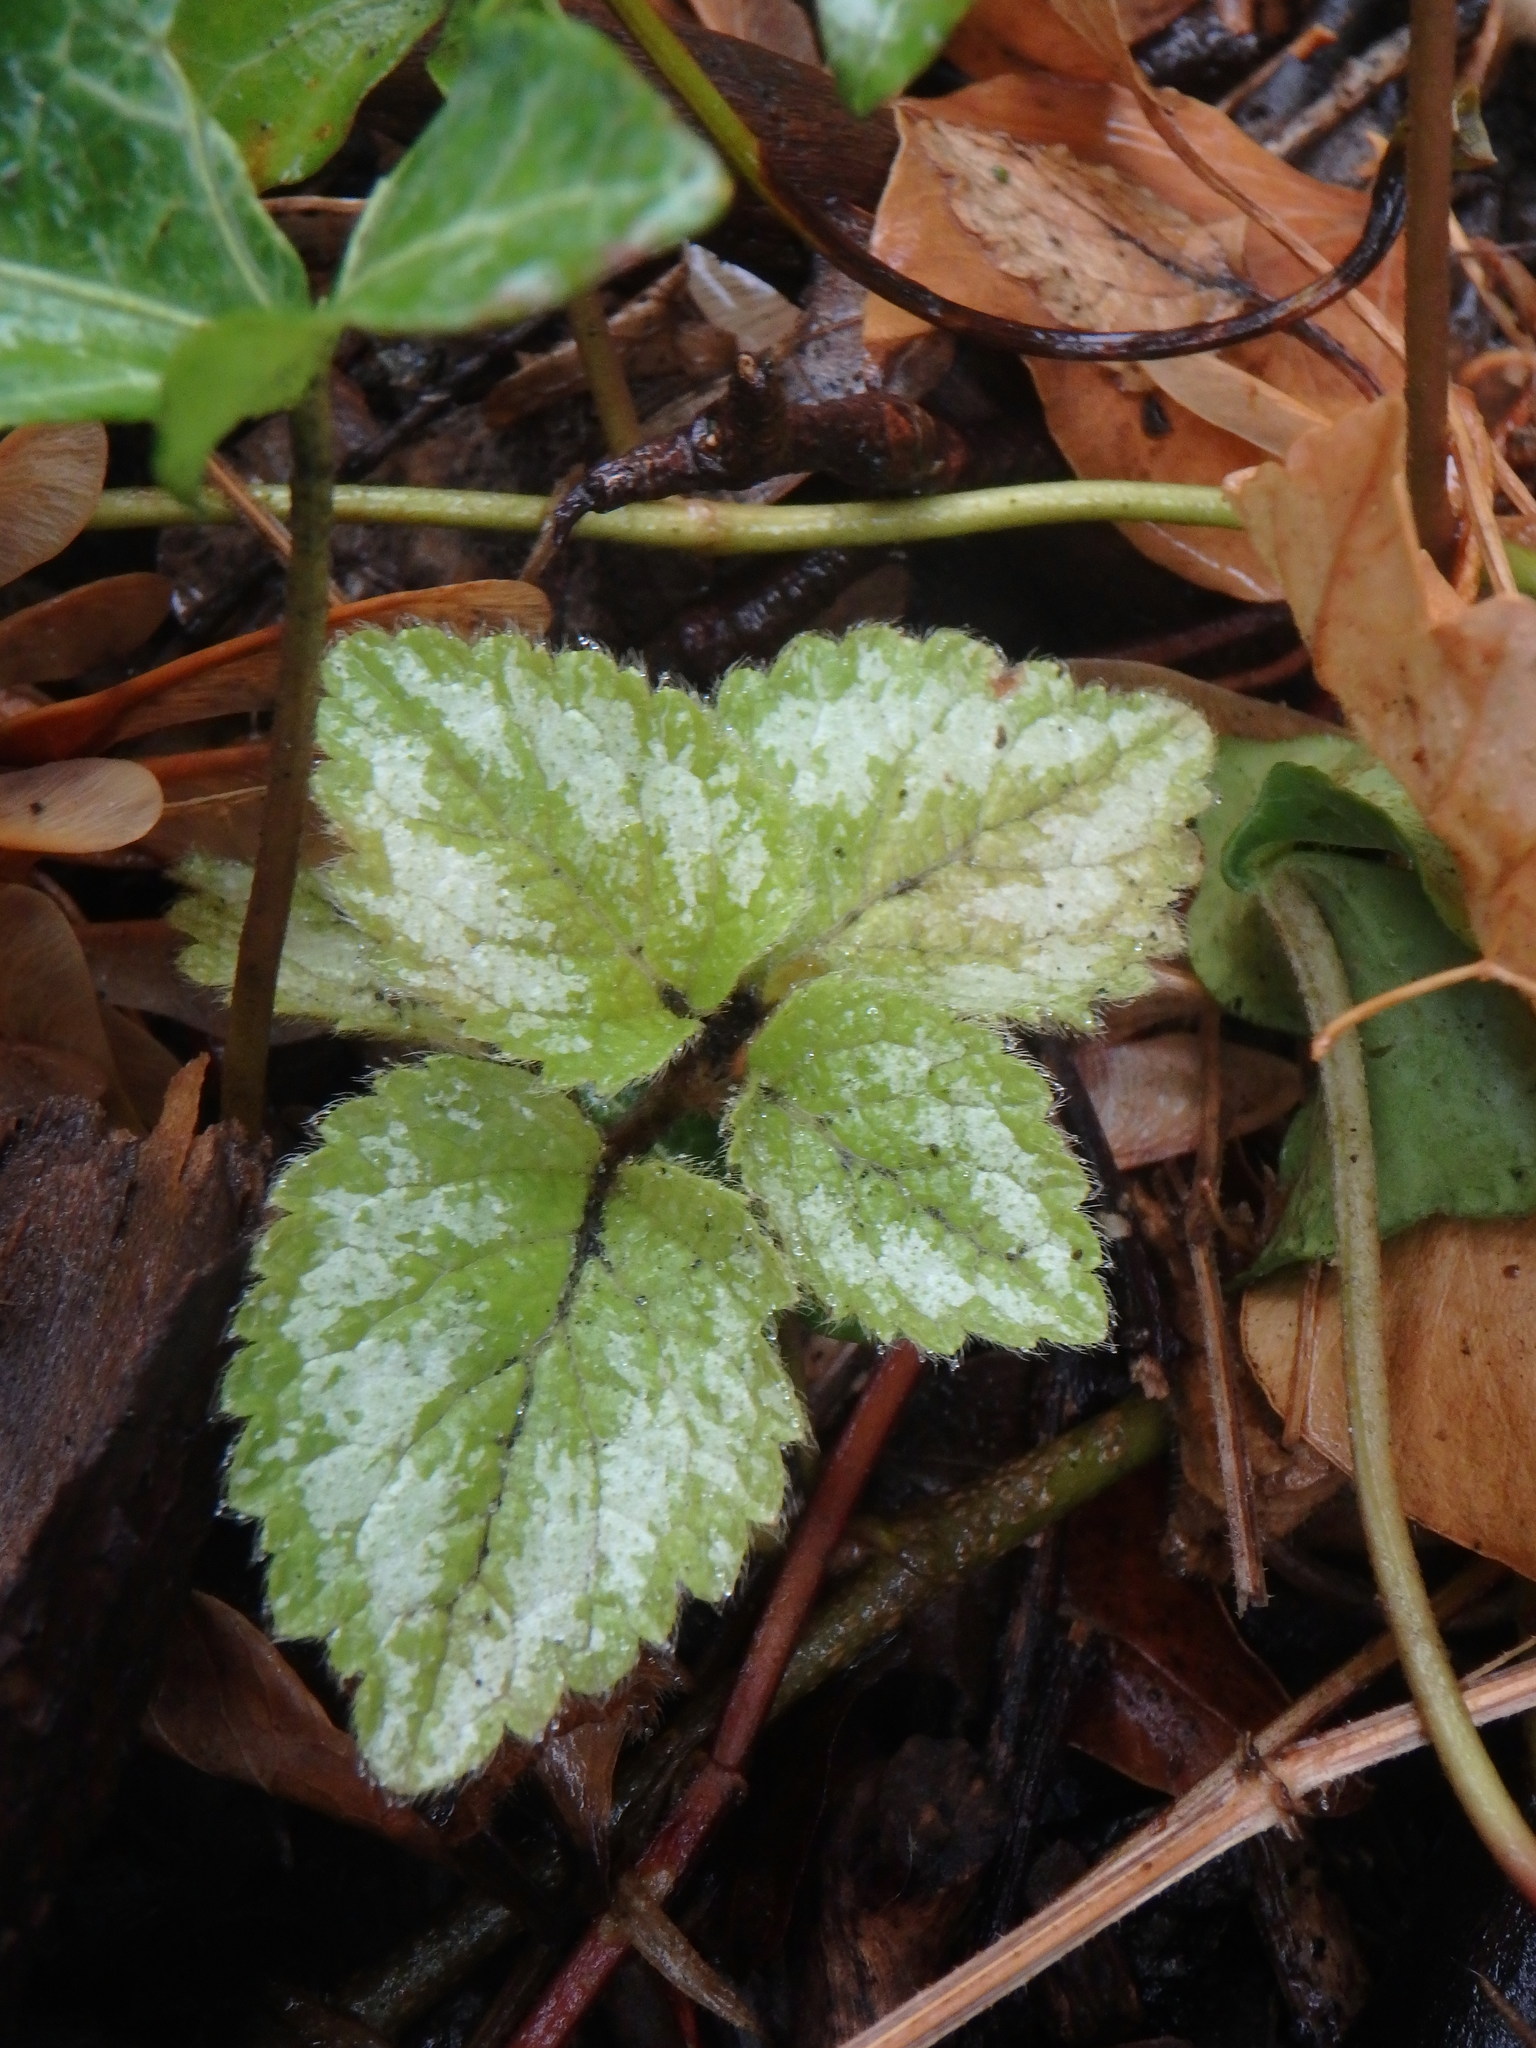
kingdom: Plantae
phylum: Tracheophyta
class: Magnoliopsida
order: Lamiales
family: Lamiaceae
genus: Lamium
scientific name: Lamium galeobdolon
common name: Yellow archangel
